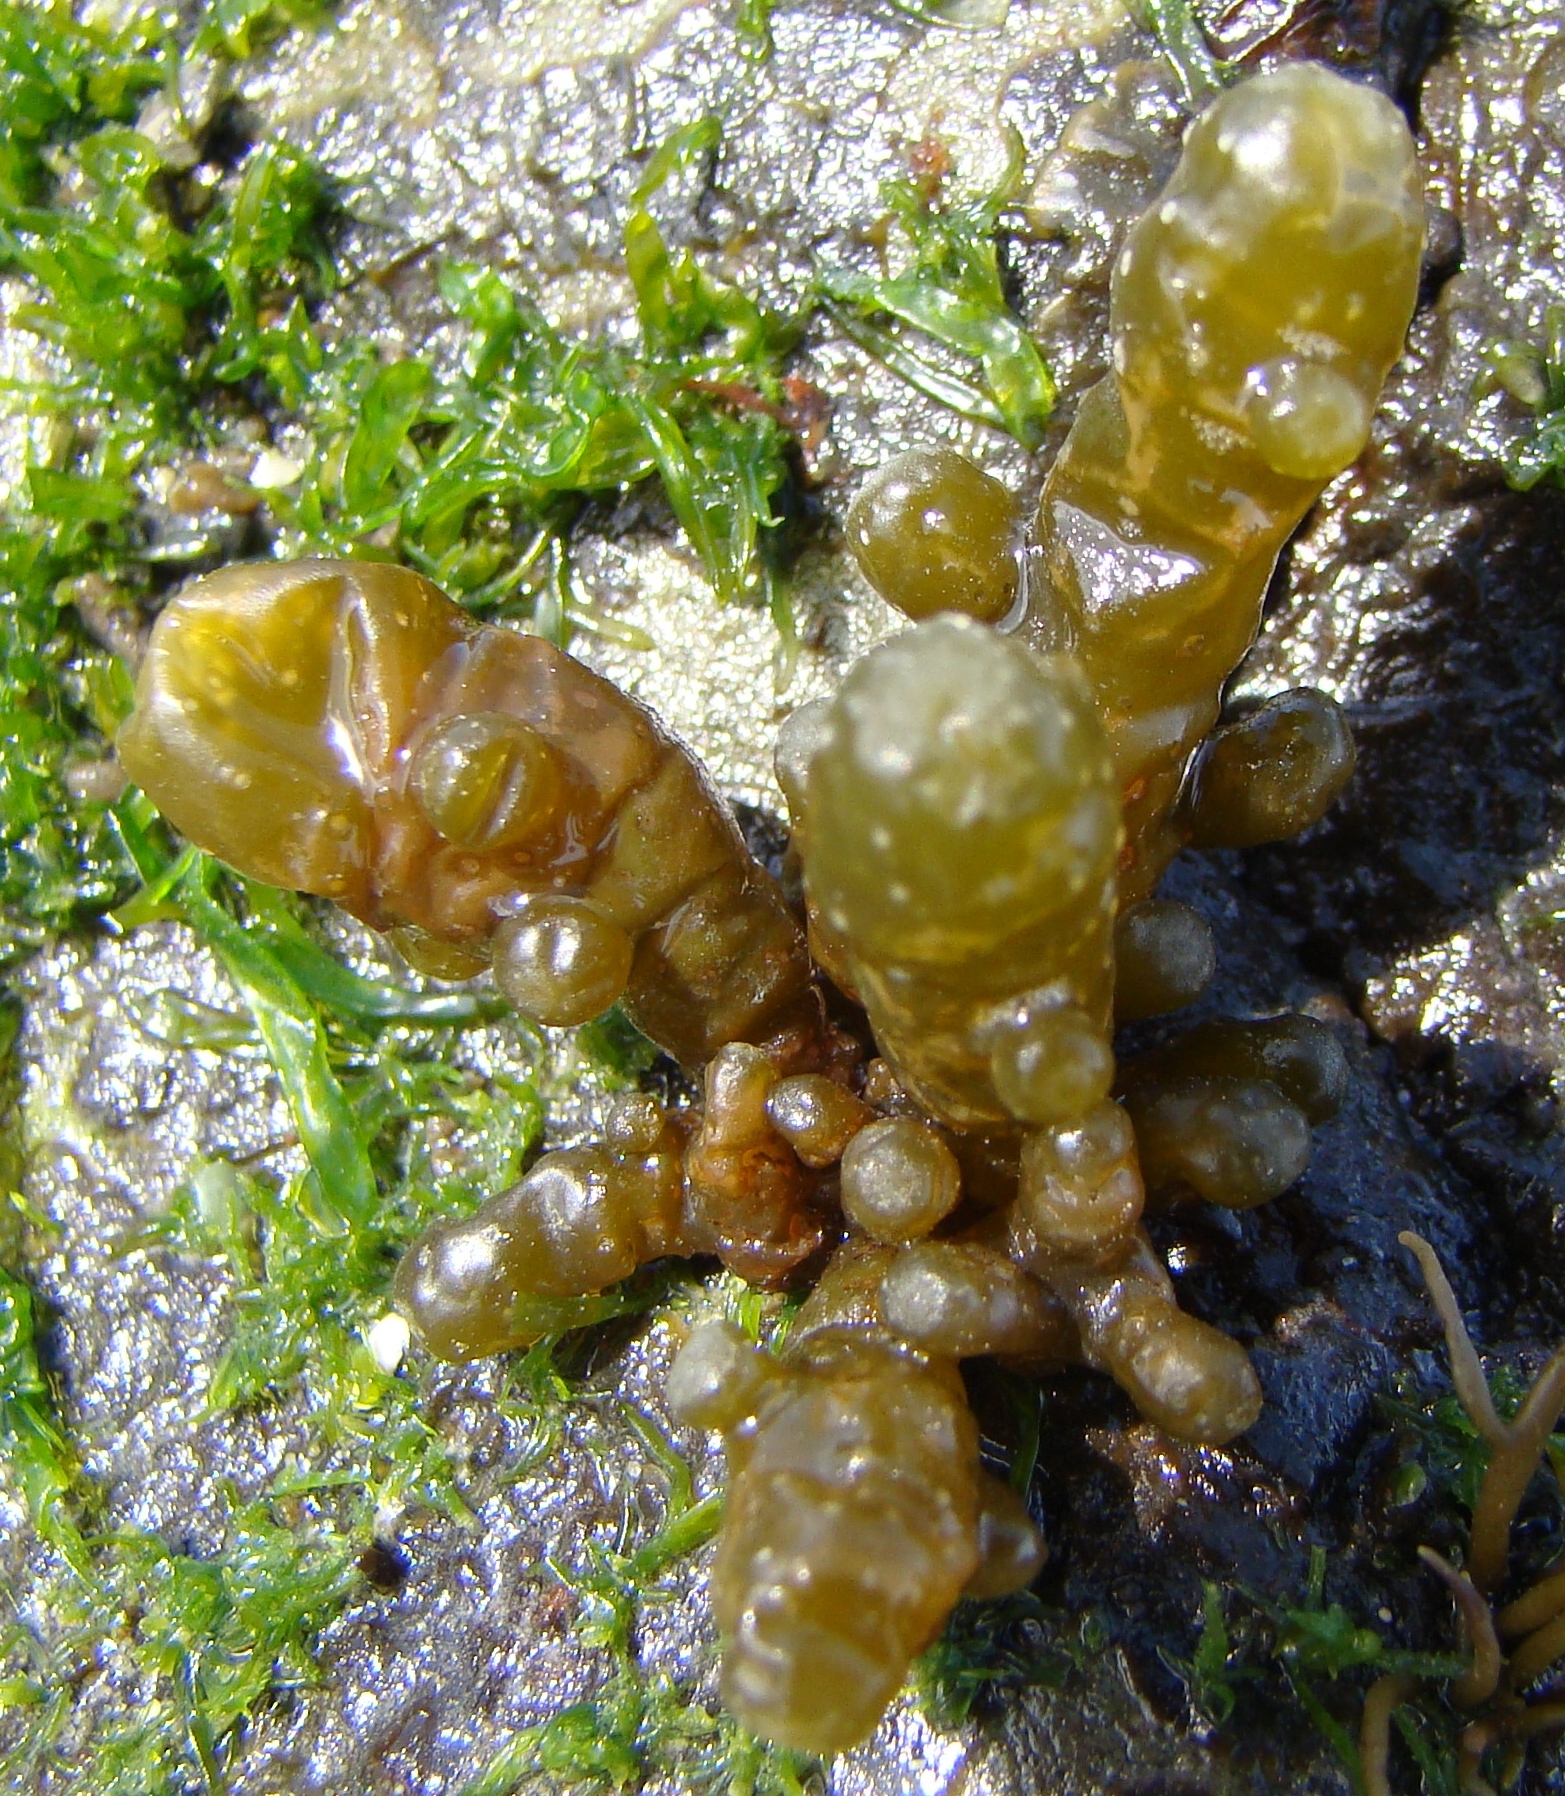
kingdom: Chromista
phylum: Ochrophyta
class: Phaeophyceae
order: Scytothamnales
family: Splachnidiaceae
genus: Splachnidium
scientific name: Splachnidium rugosum
